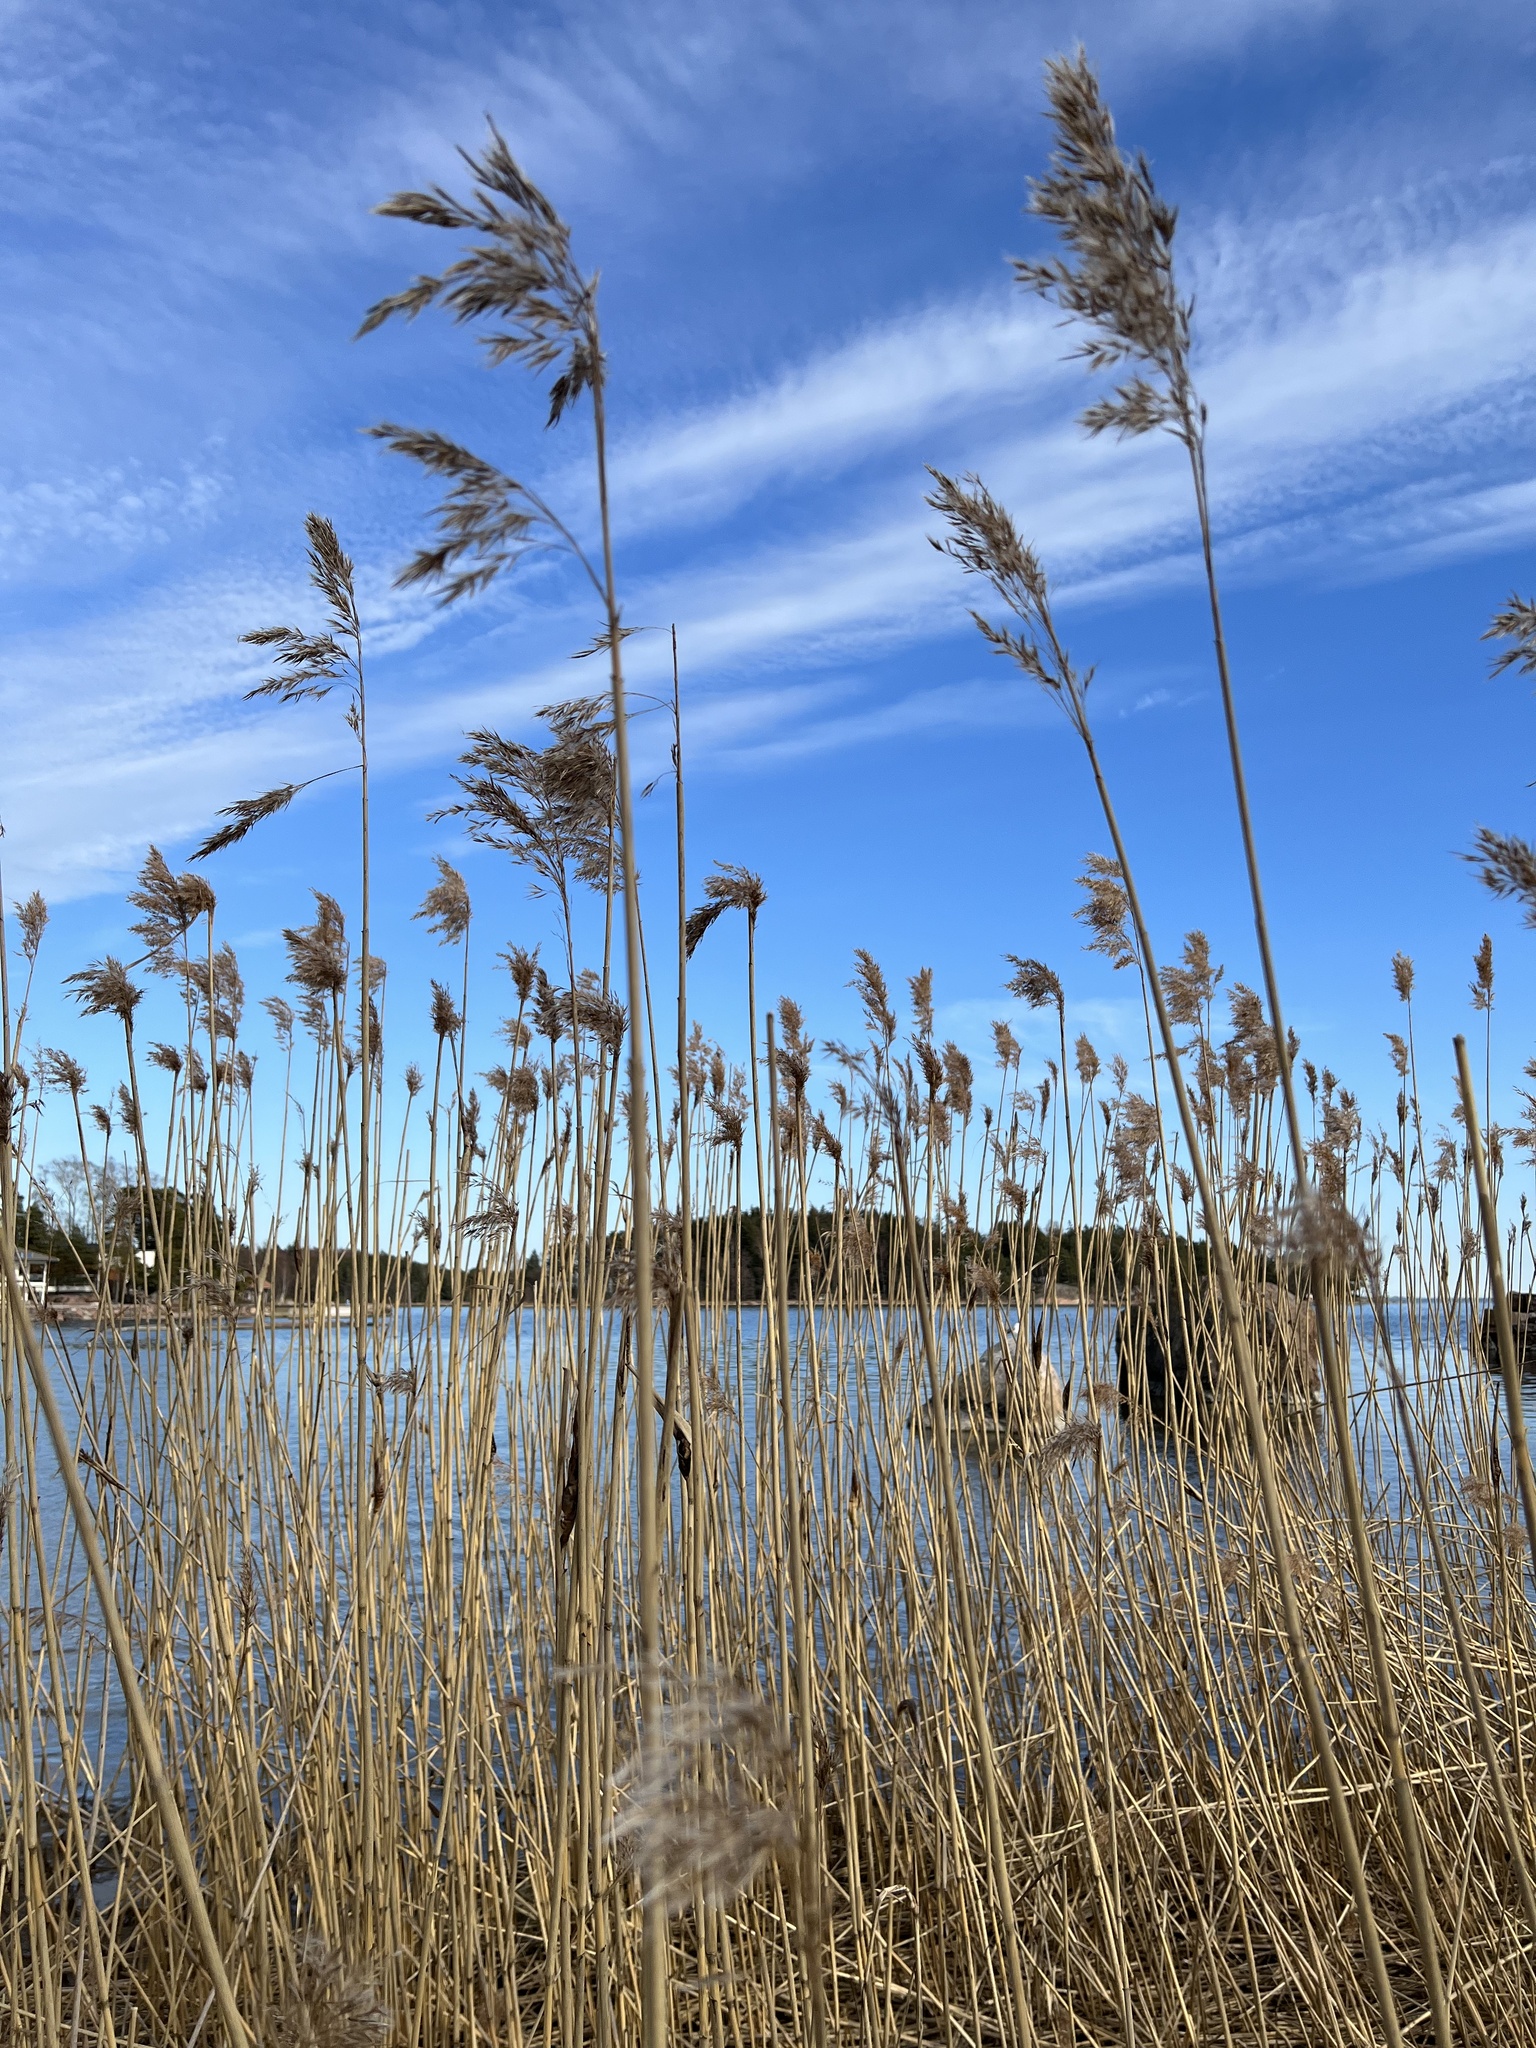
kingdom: Plantae
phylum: Tracheophyta
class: Liliopsida
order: Poales
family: Poaceae
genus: Phragmites
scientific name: Phragmites australis
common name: Common reed
